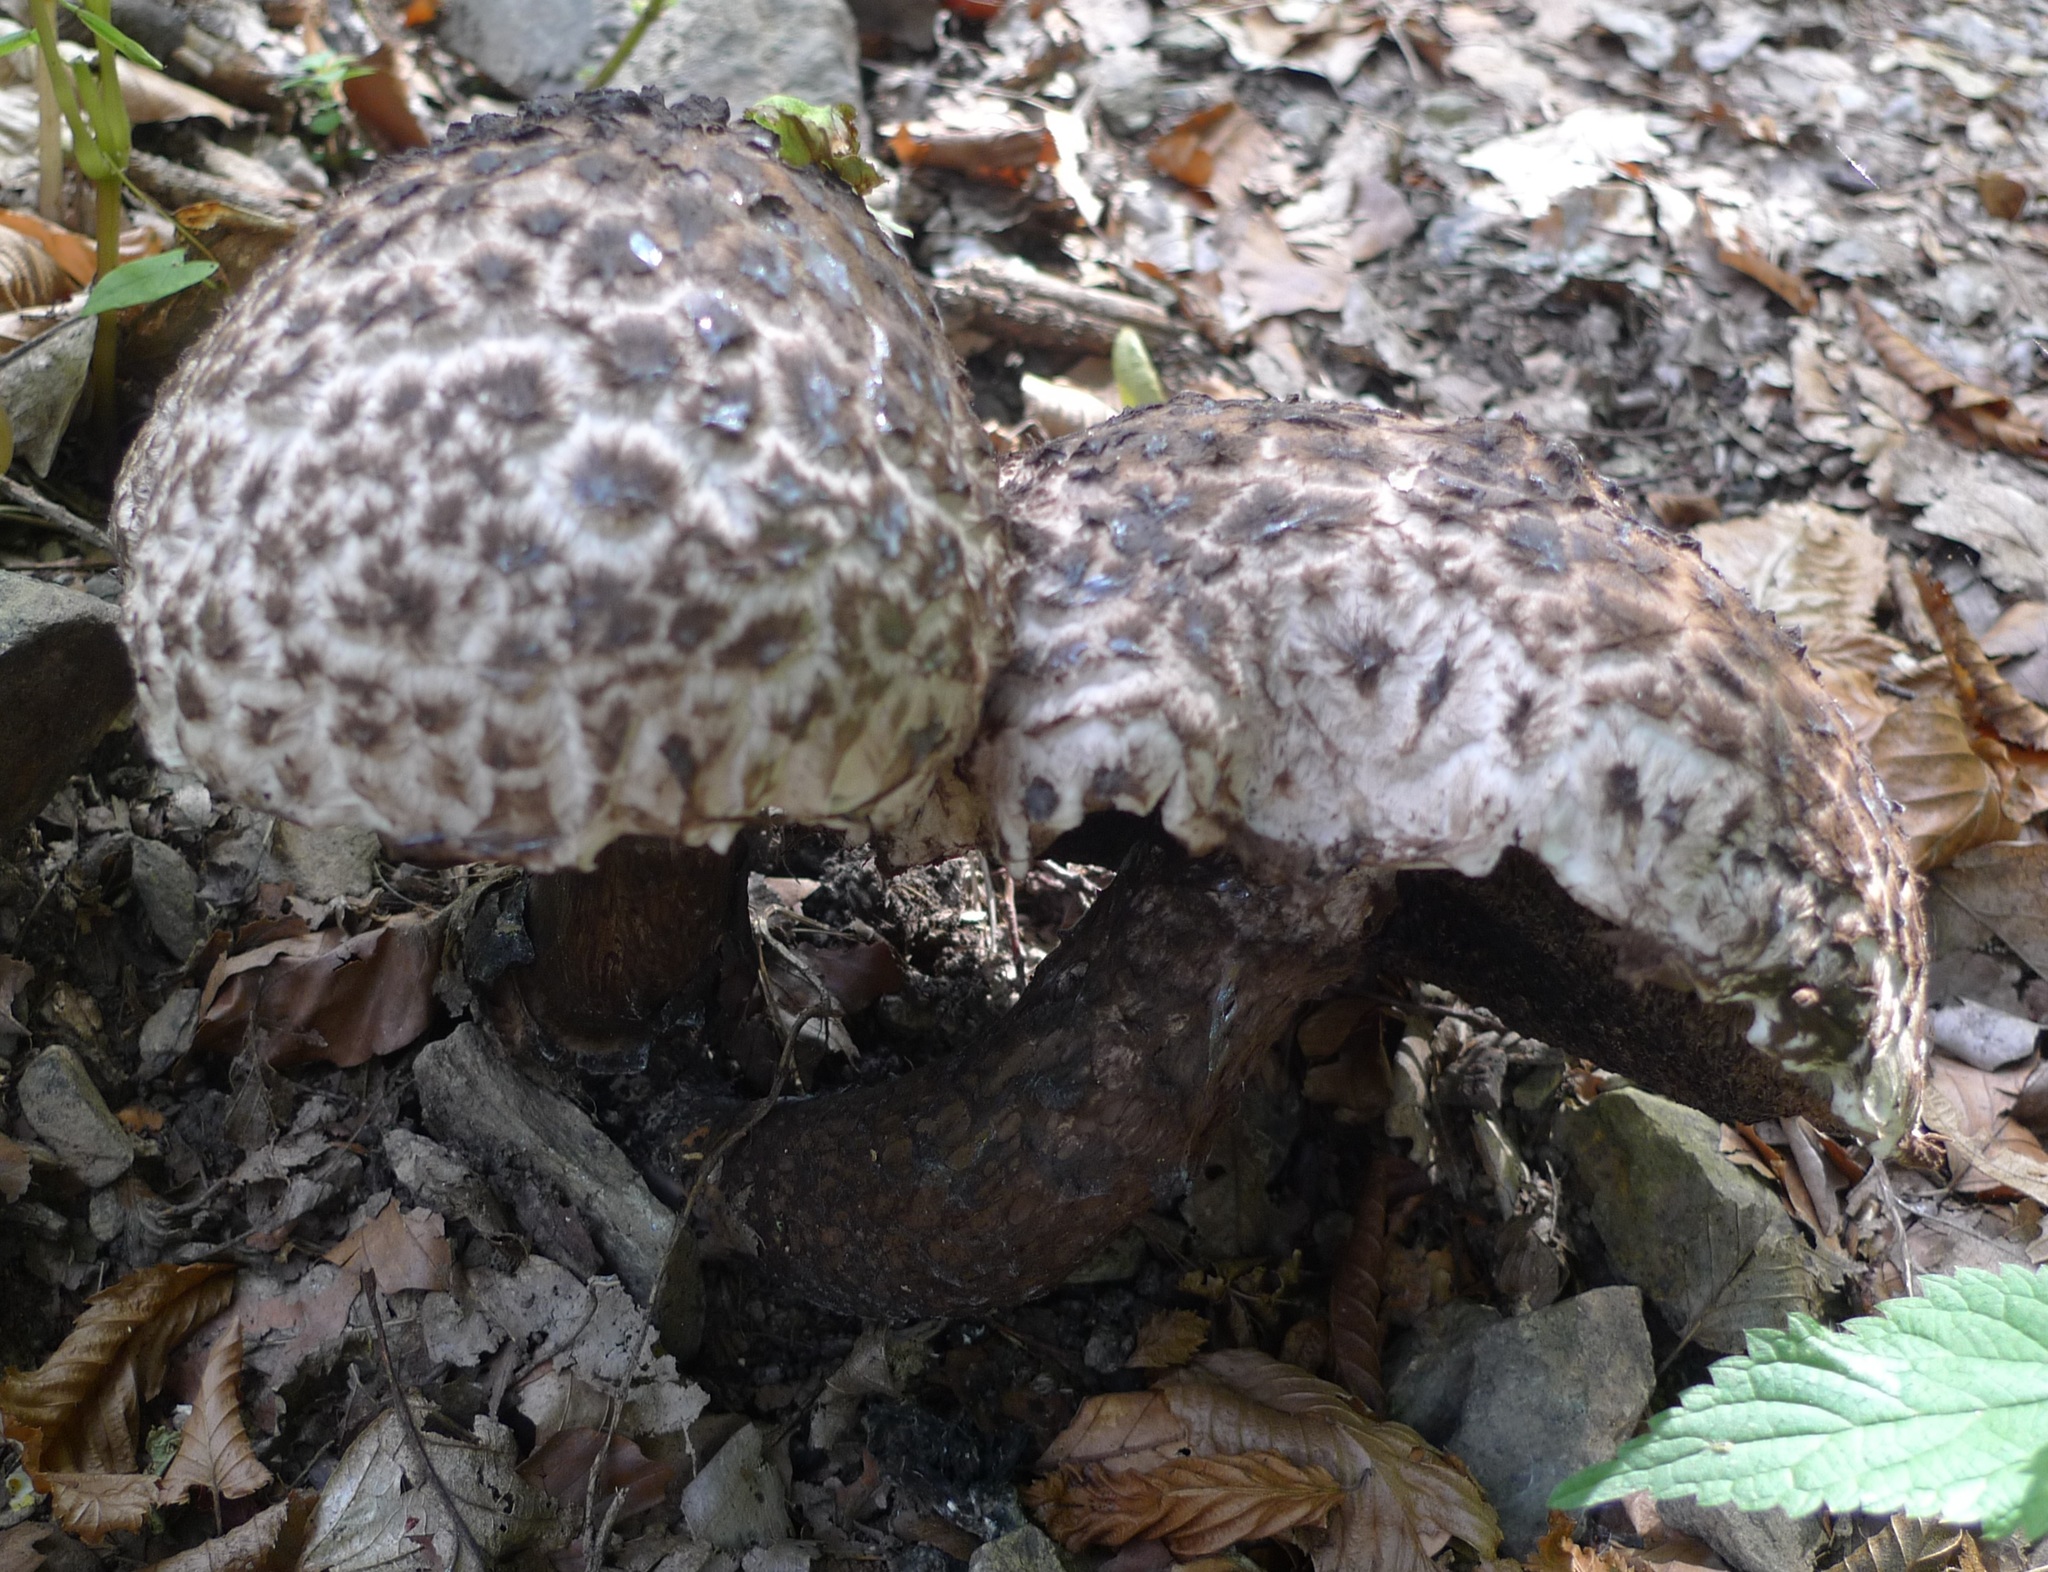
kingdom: Fungi
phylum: Basidiomycota
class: Agaricomycetes
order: Boletales
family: Boletaceae
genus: Strobilomyces
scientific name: Strobilomyces strobilaceus
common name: Old man of the woods
